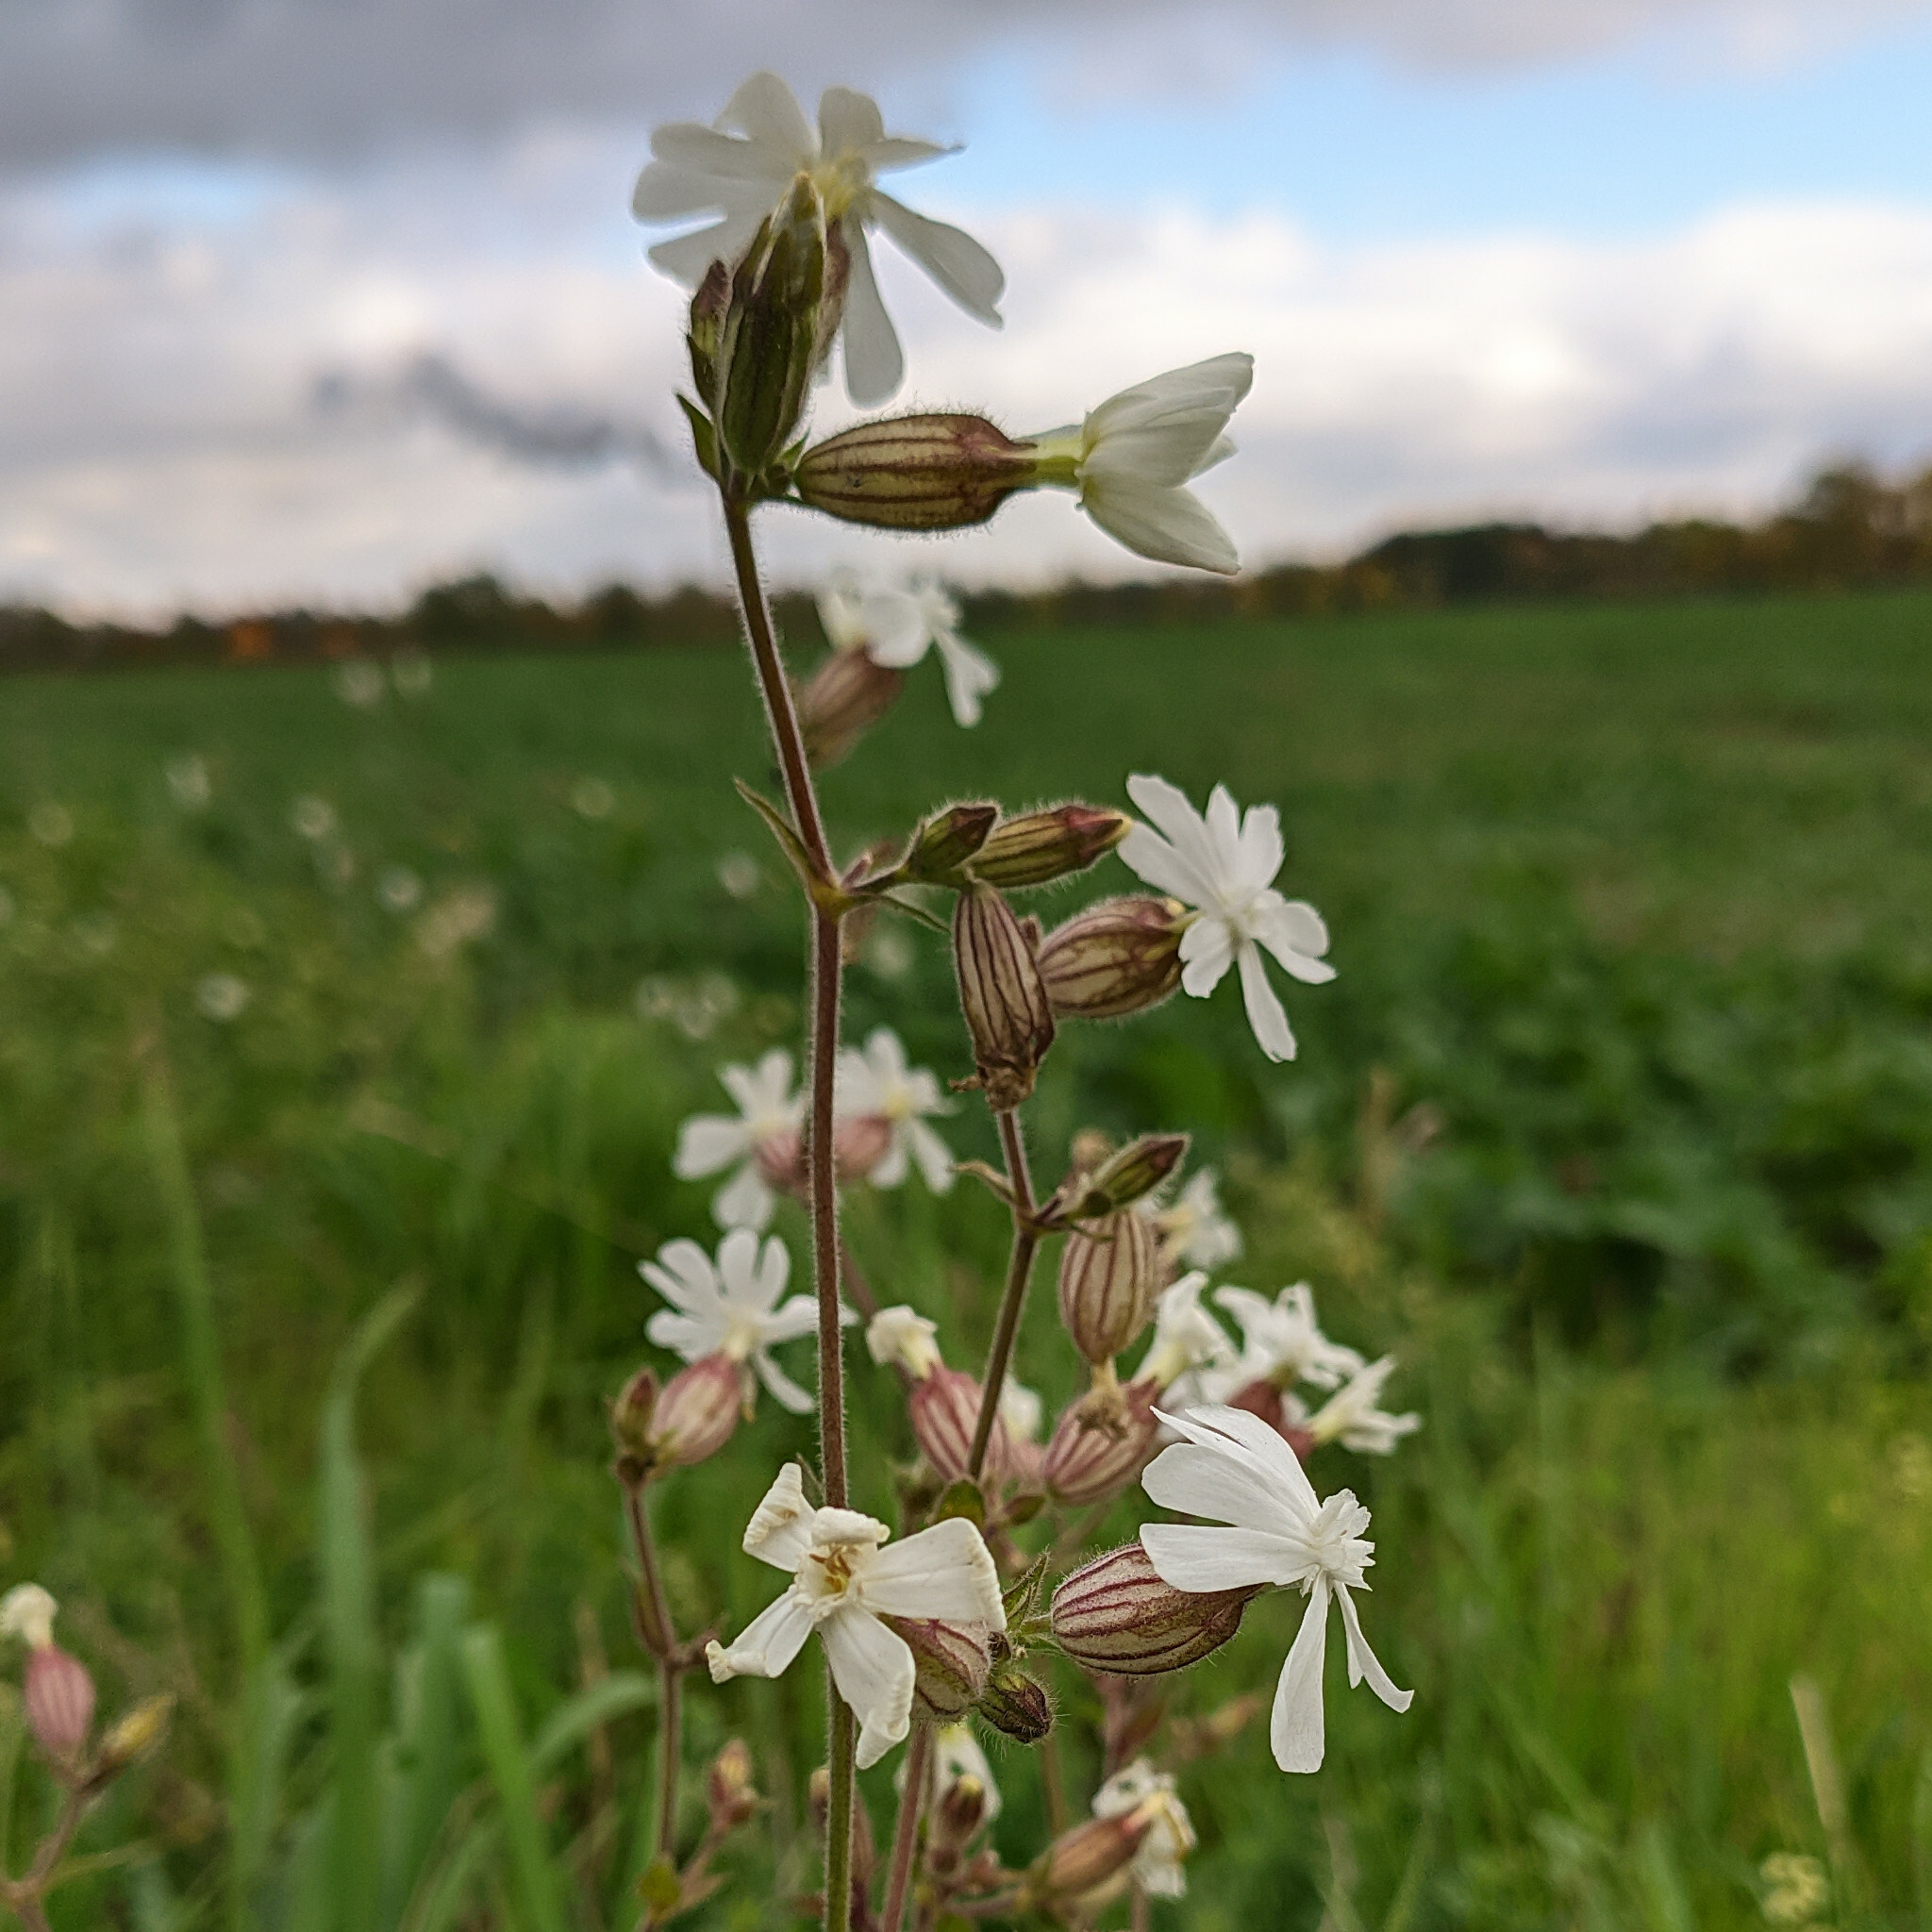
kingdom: Plantae
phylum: Tracheophyta
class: Magnoliopsida
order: Caryophyllales
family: Caryophyllaceae
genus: Silene
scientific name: Silene latifolia
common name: White campion
